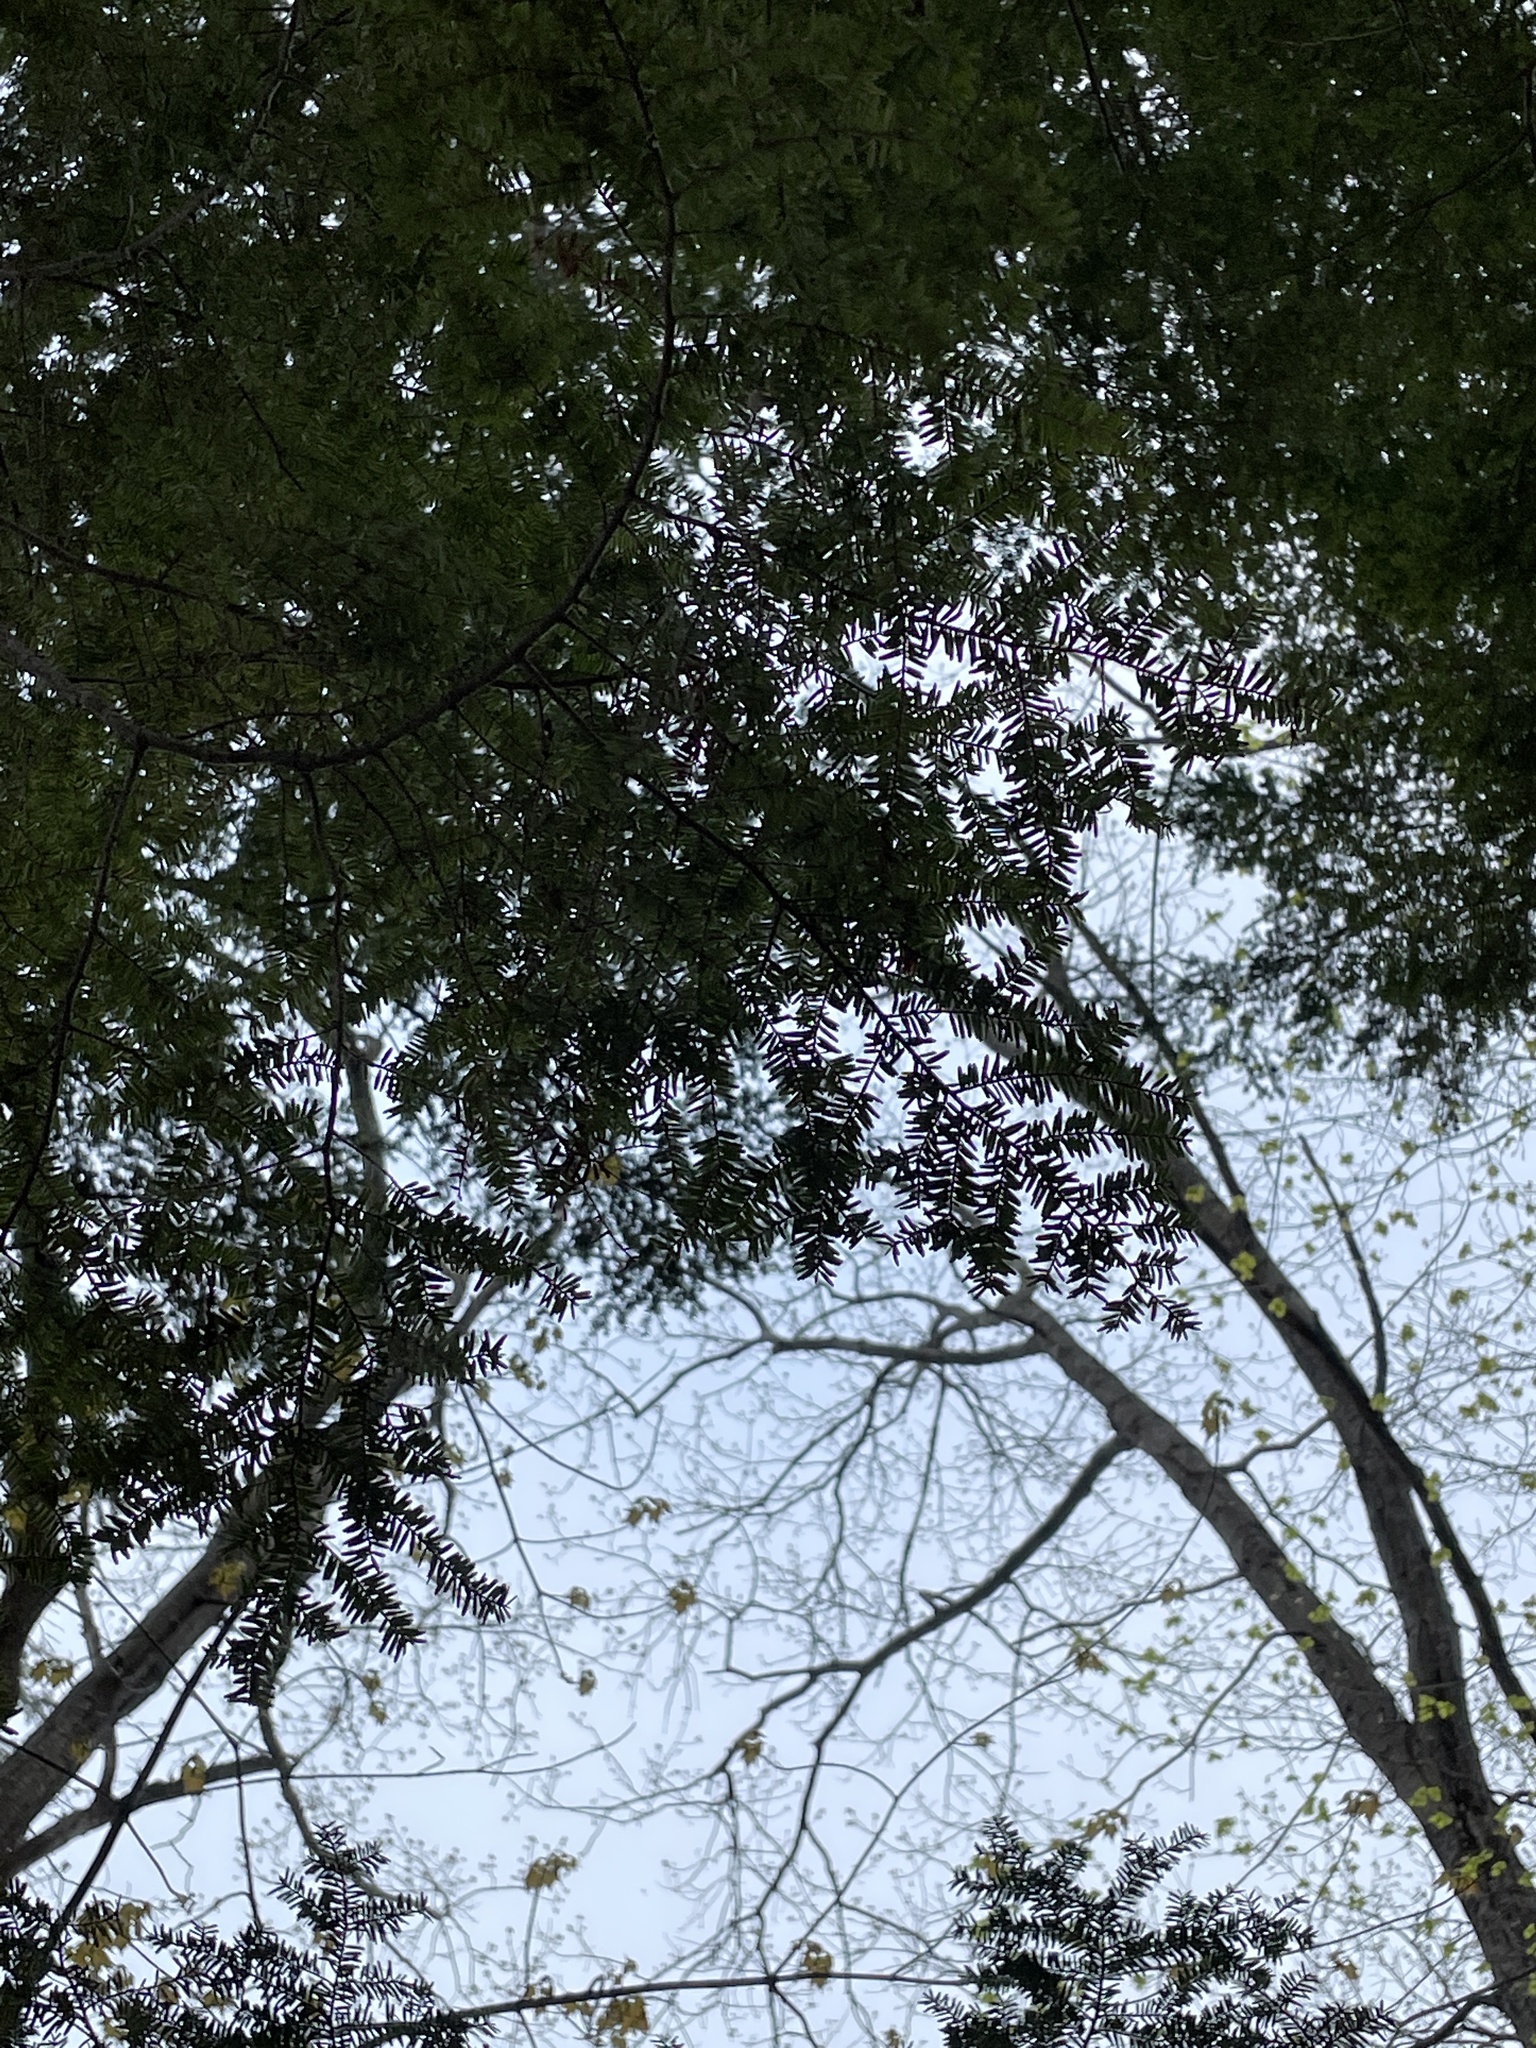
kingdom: Plantae
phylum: Tracheophyta
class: Pinopsida
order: Pinales
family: Pinaceae
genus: Tsuga
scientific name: Tsuga canadensis
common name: Eastern hemlock
